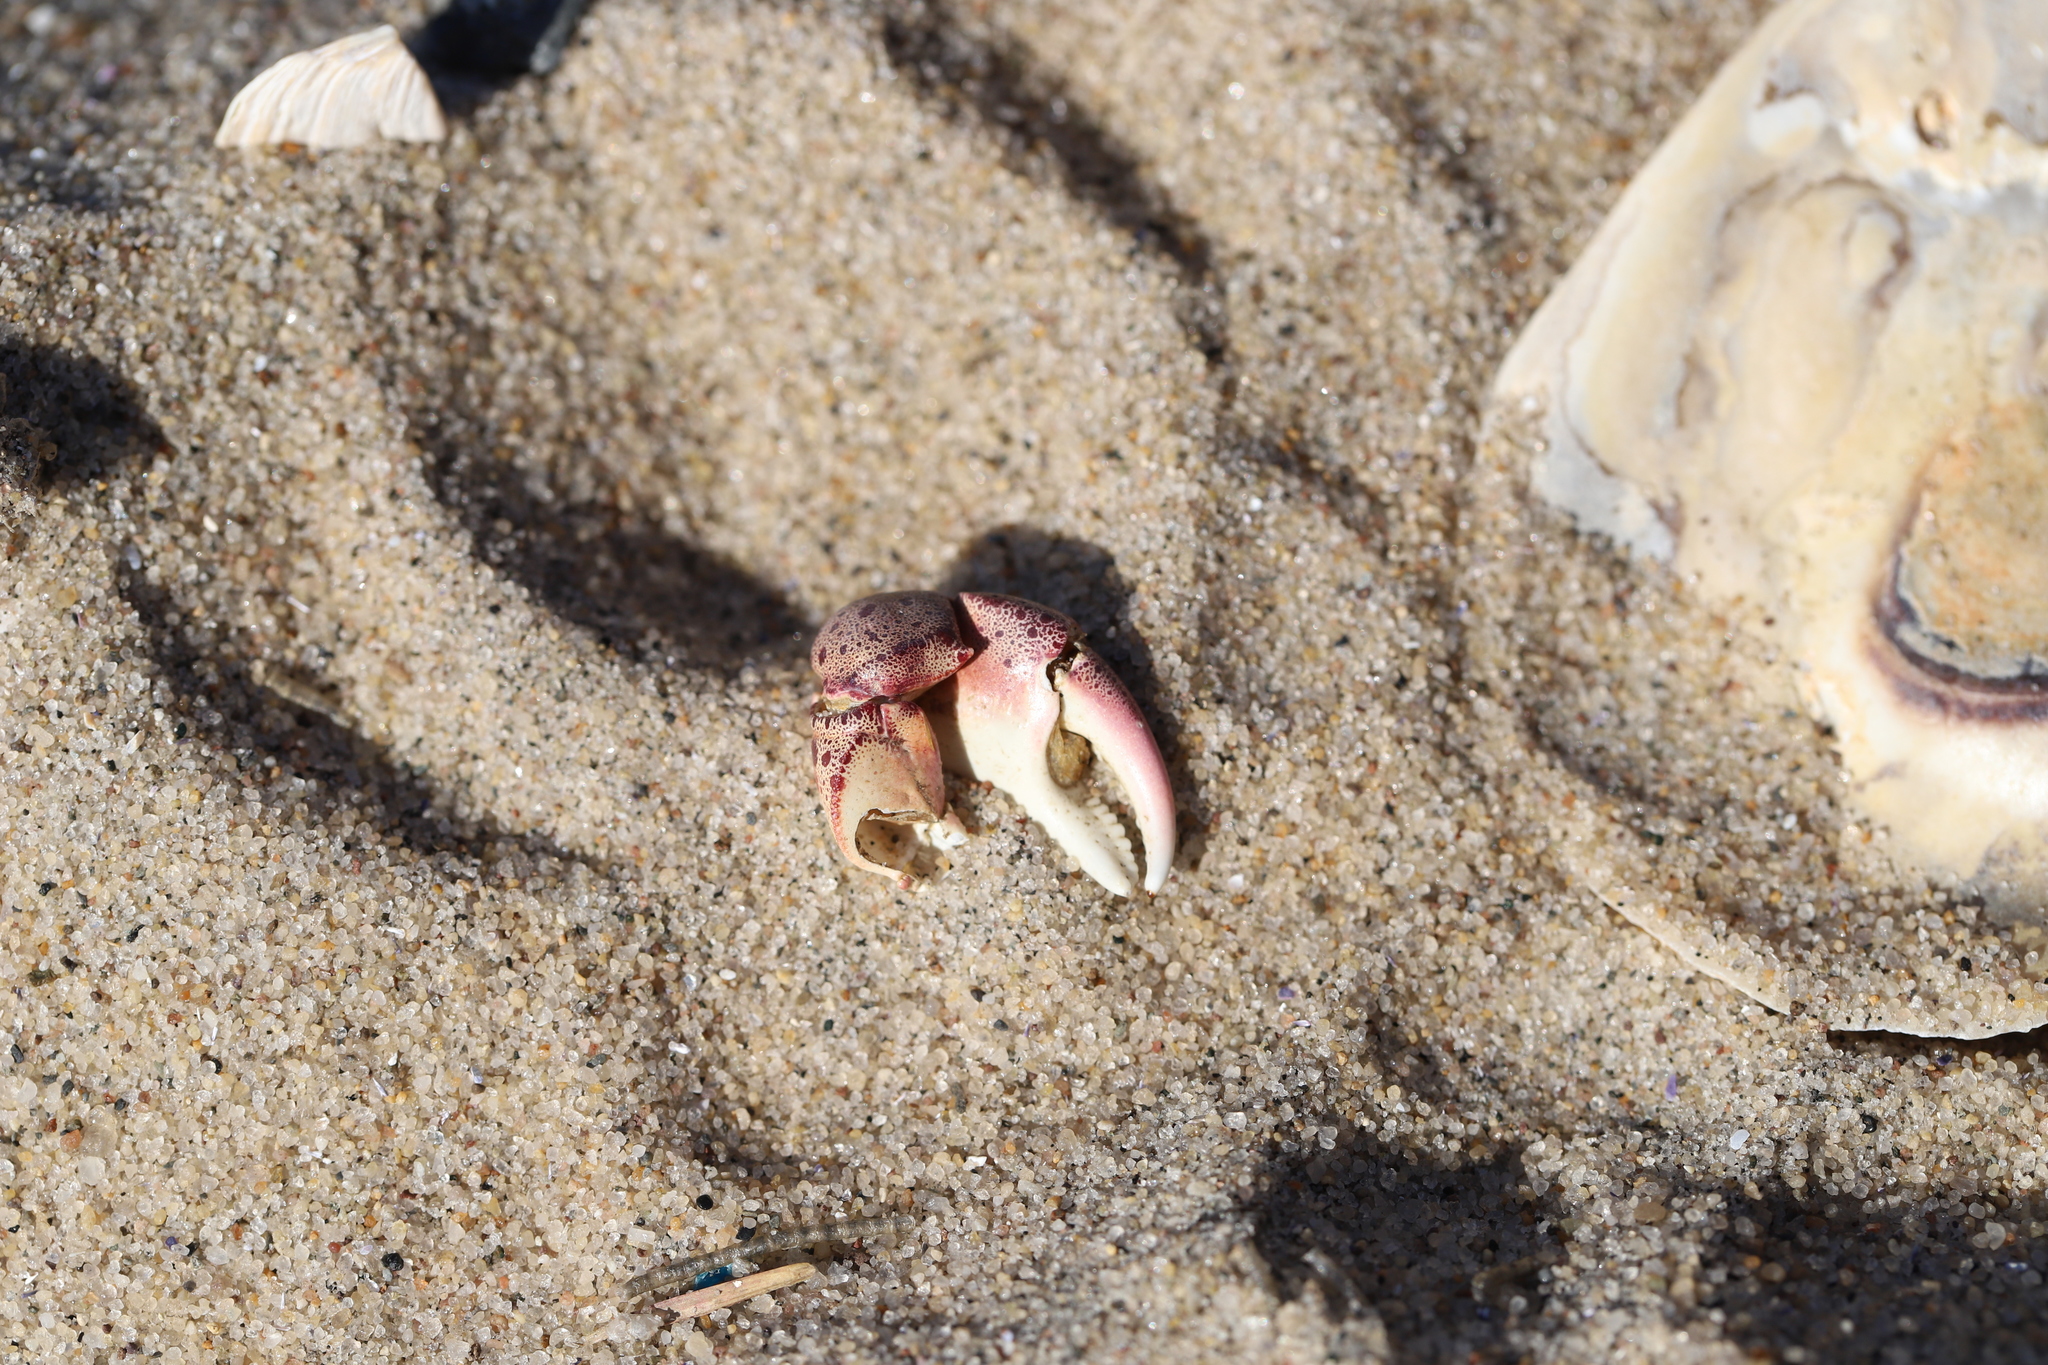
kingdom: Animalia
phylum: Arthropoda
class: Malacostraca
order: Decapoda
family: Varunidae
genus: Hemigrapsus
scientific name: Hemigrapsus sanguineus
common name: Asian shore crab
